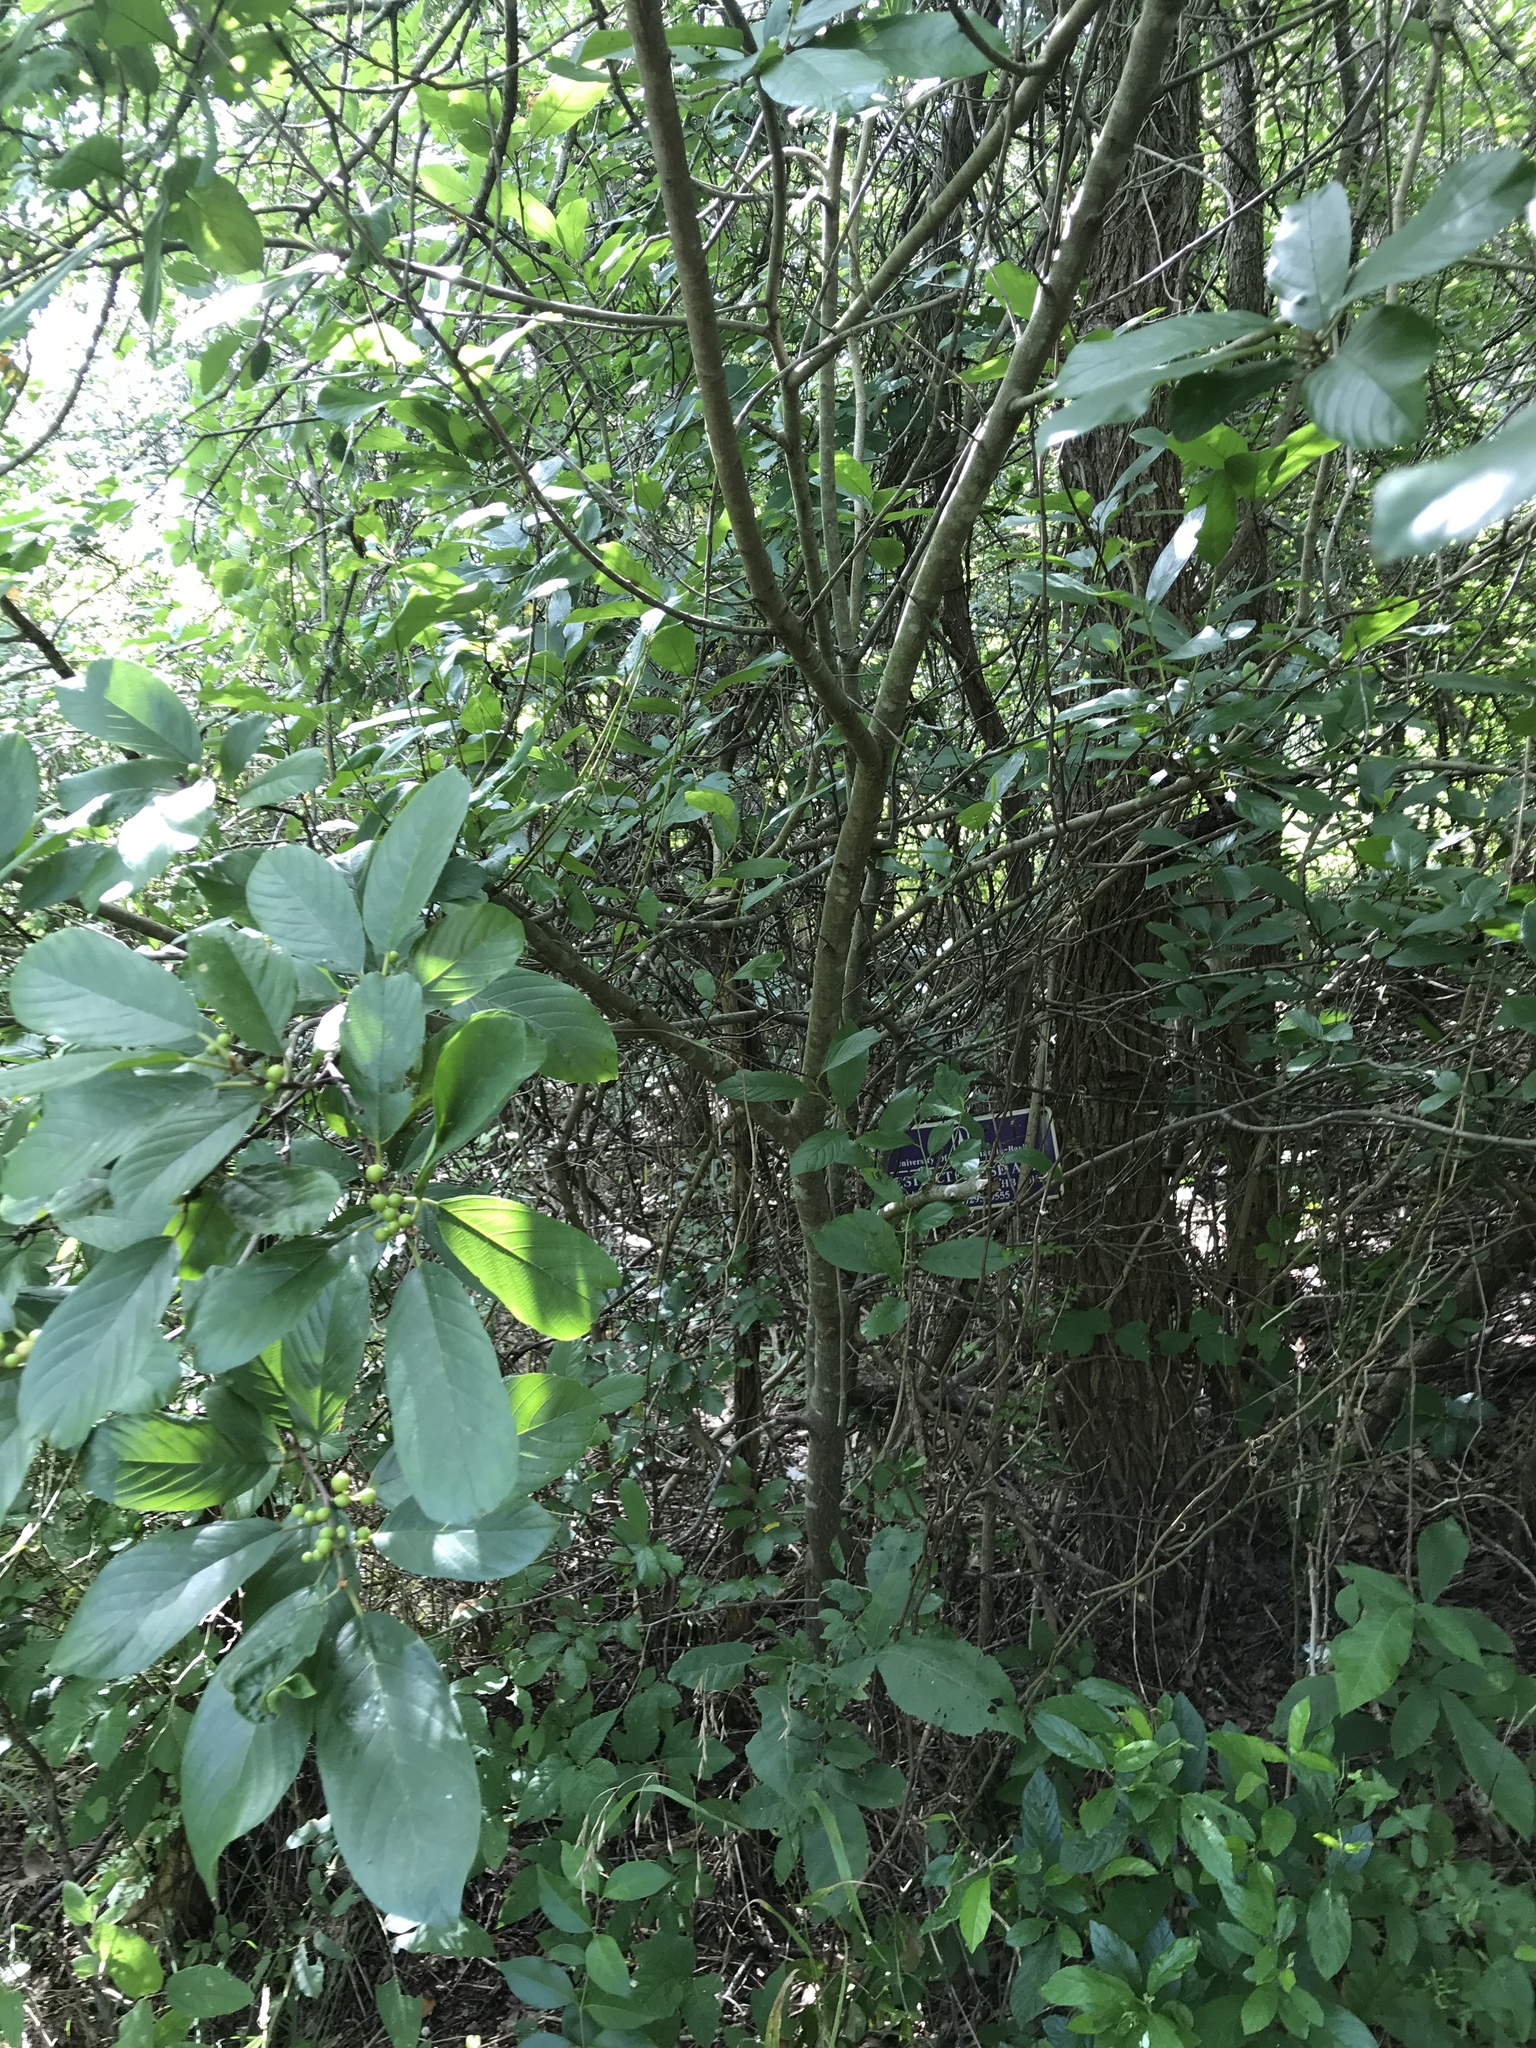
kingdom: Plantae
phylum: Tracheophyta
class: Magnoliopsida
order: Rosales
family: Rhamnaceae
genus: Frangula
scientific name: Frangula caroliniana
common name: Carolina buckthorn
